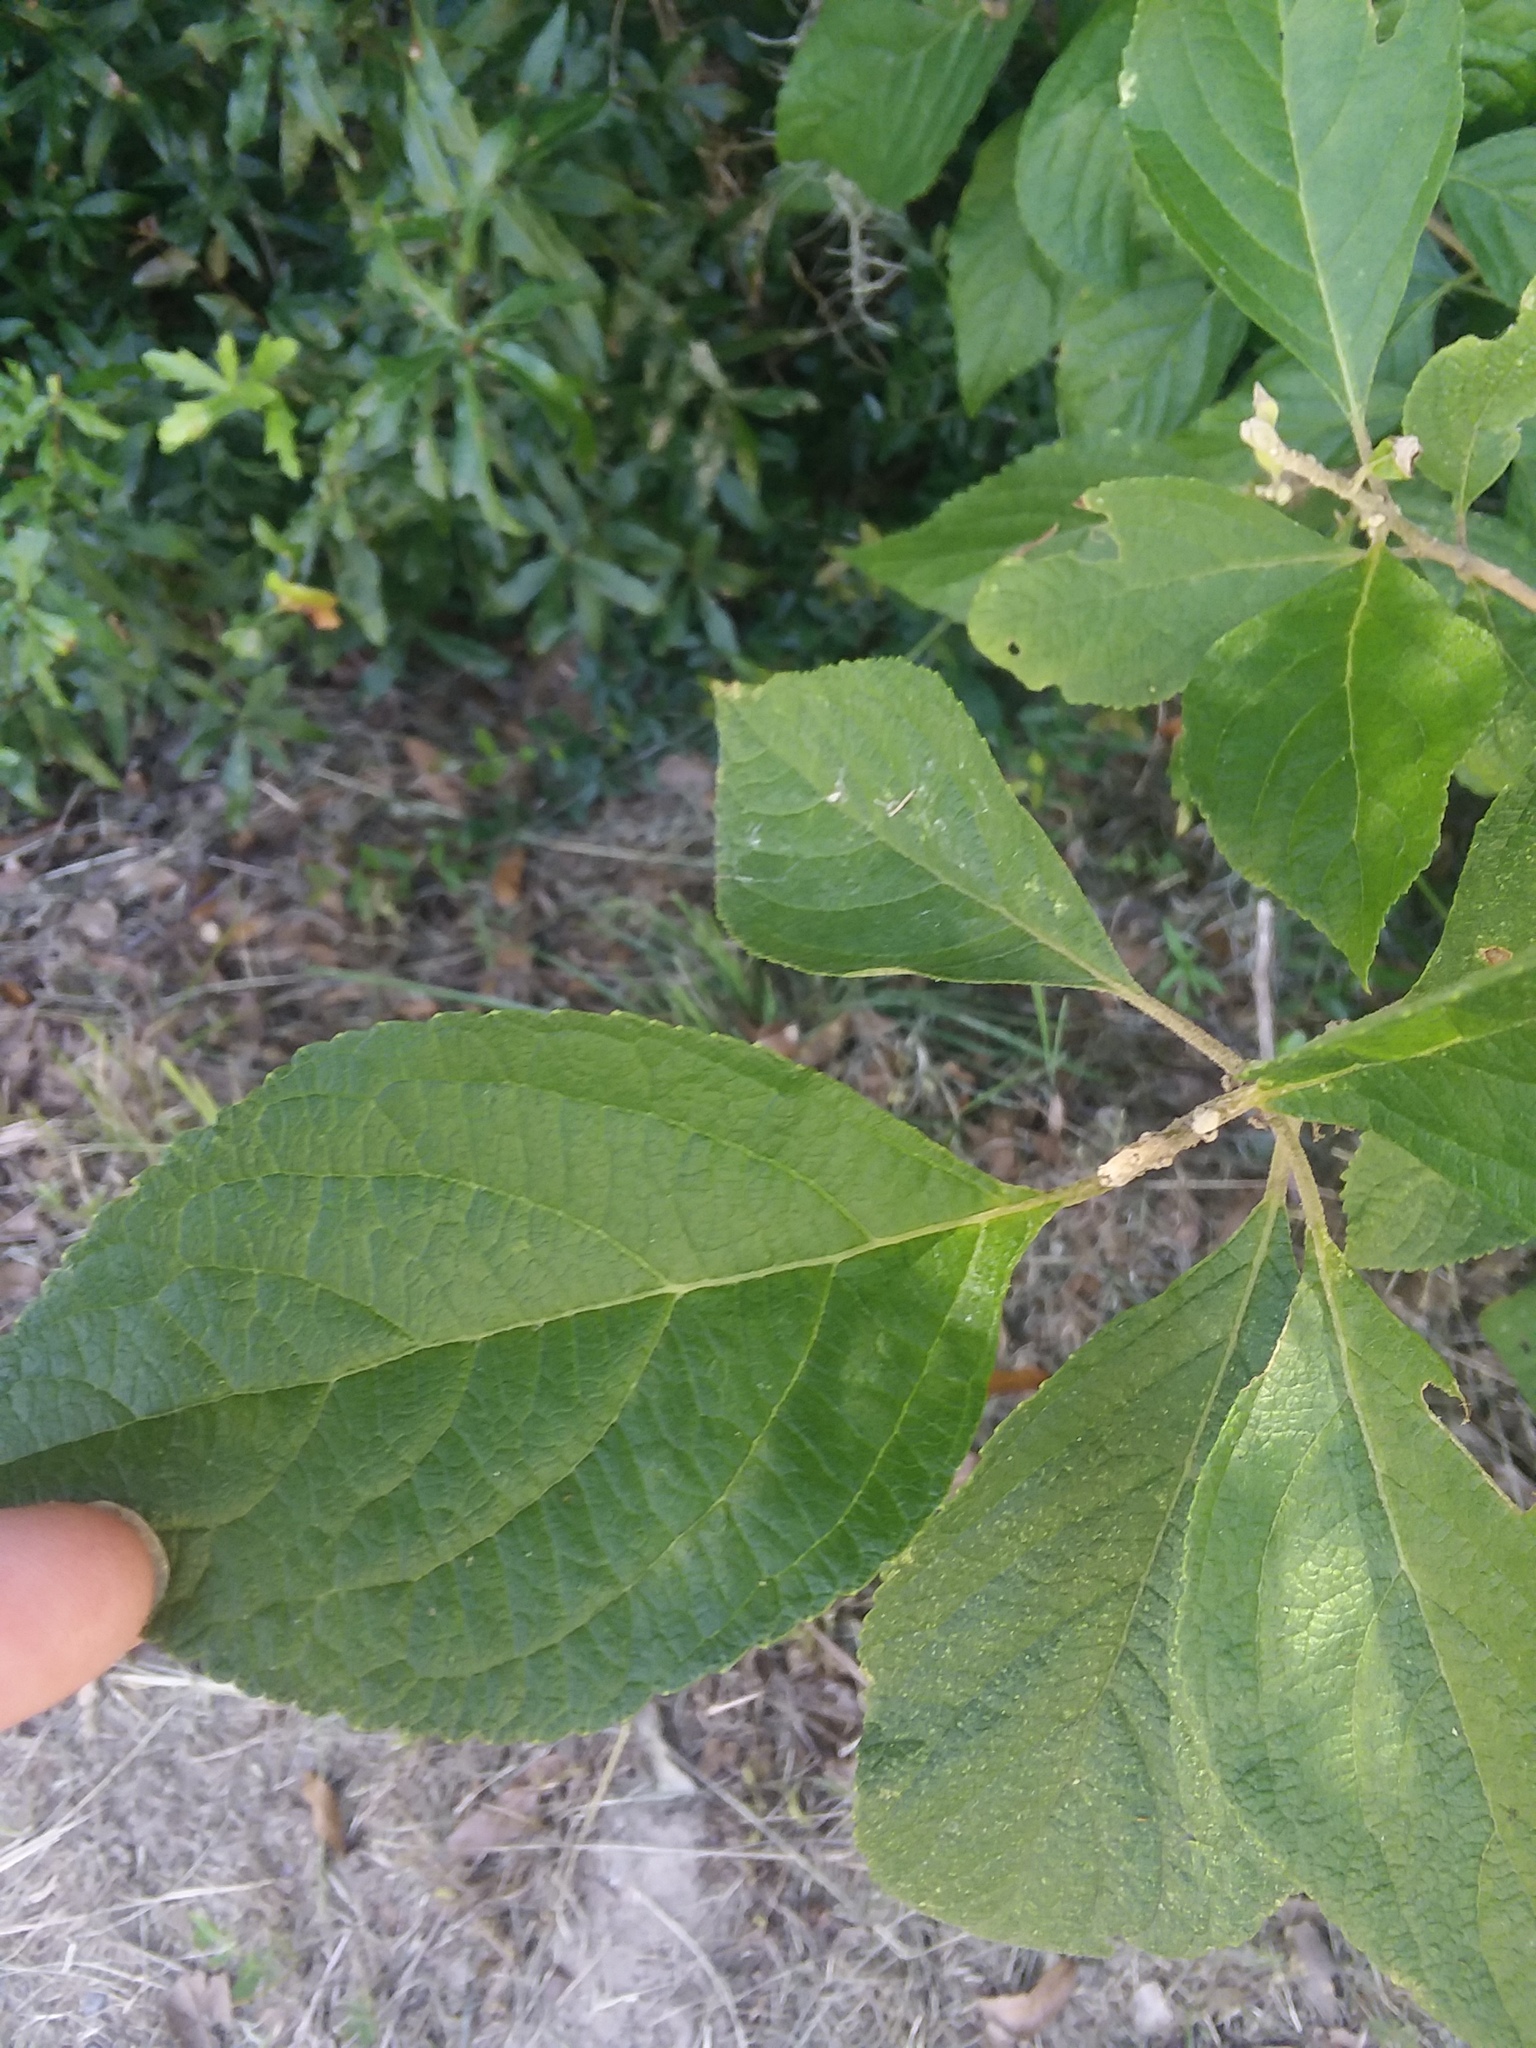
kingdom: Plantae
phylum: Tracheophyta
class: Magnoliopsida
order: Lamiales
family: Lamiaceae
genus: Callicarpa
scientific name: Callicarpa americana
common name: American beautyberry
